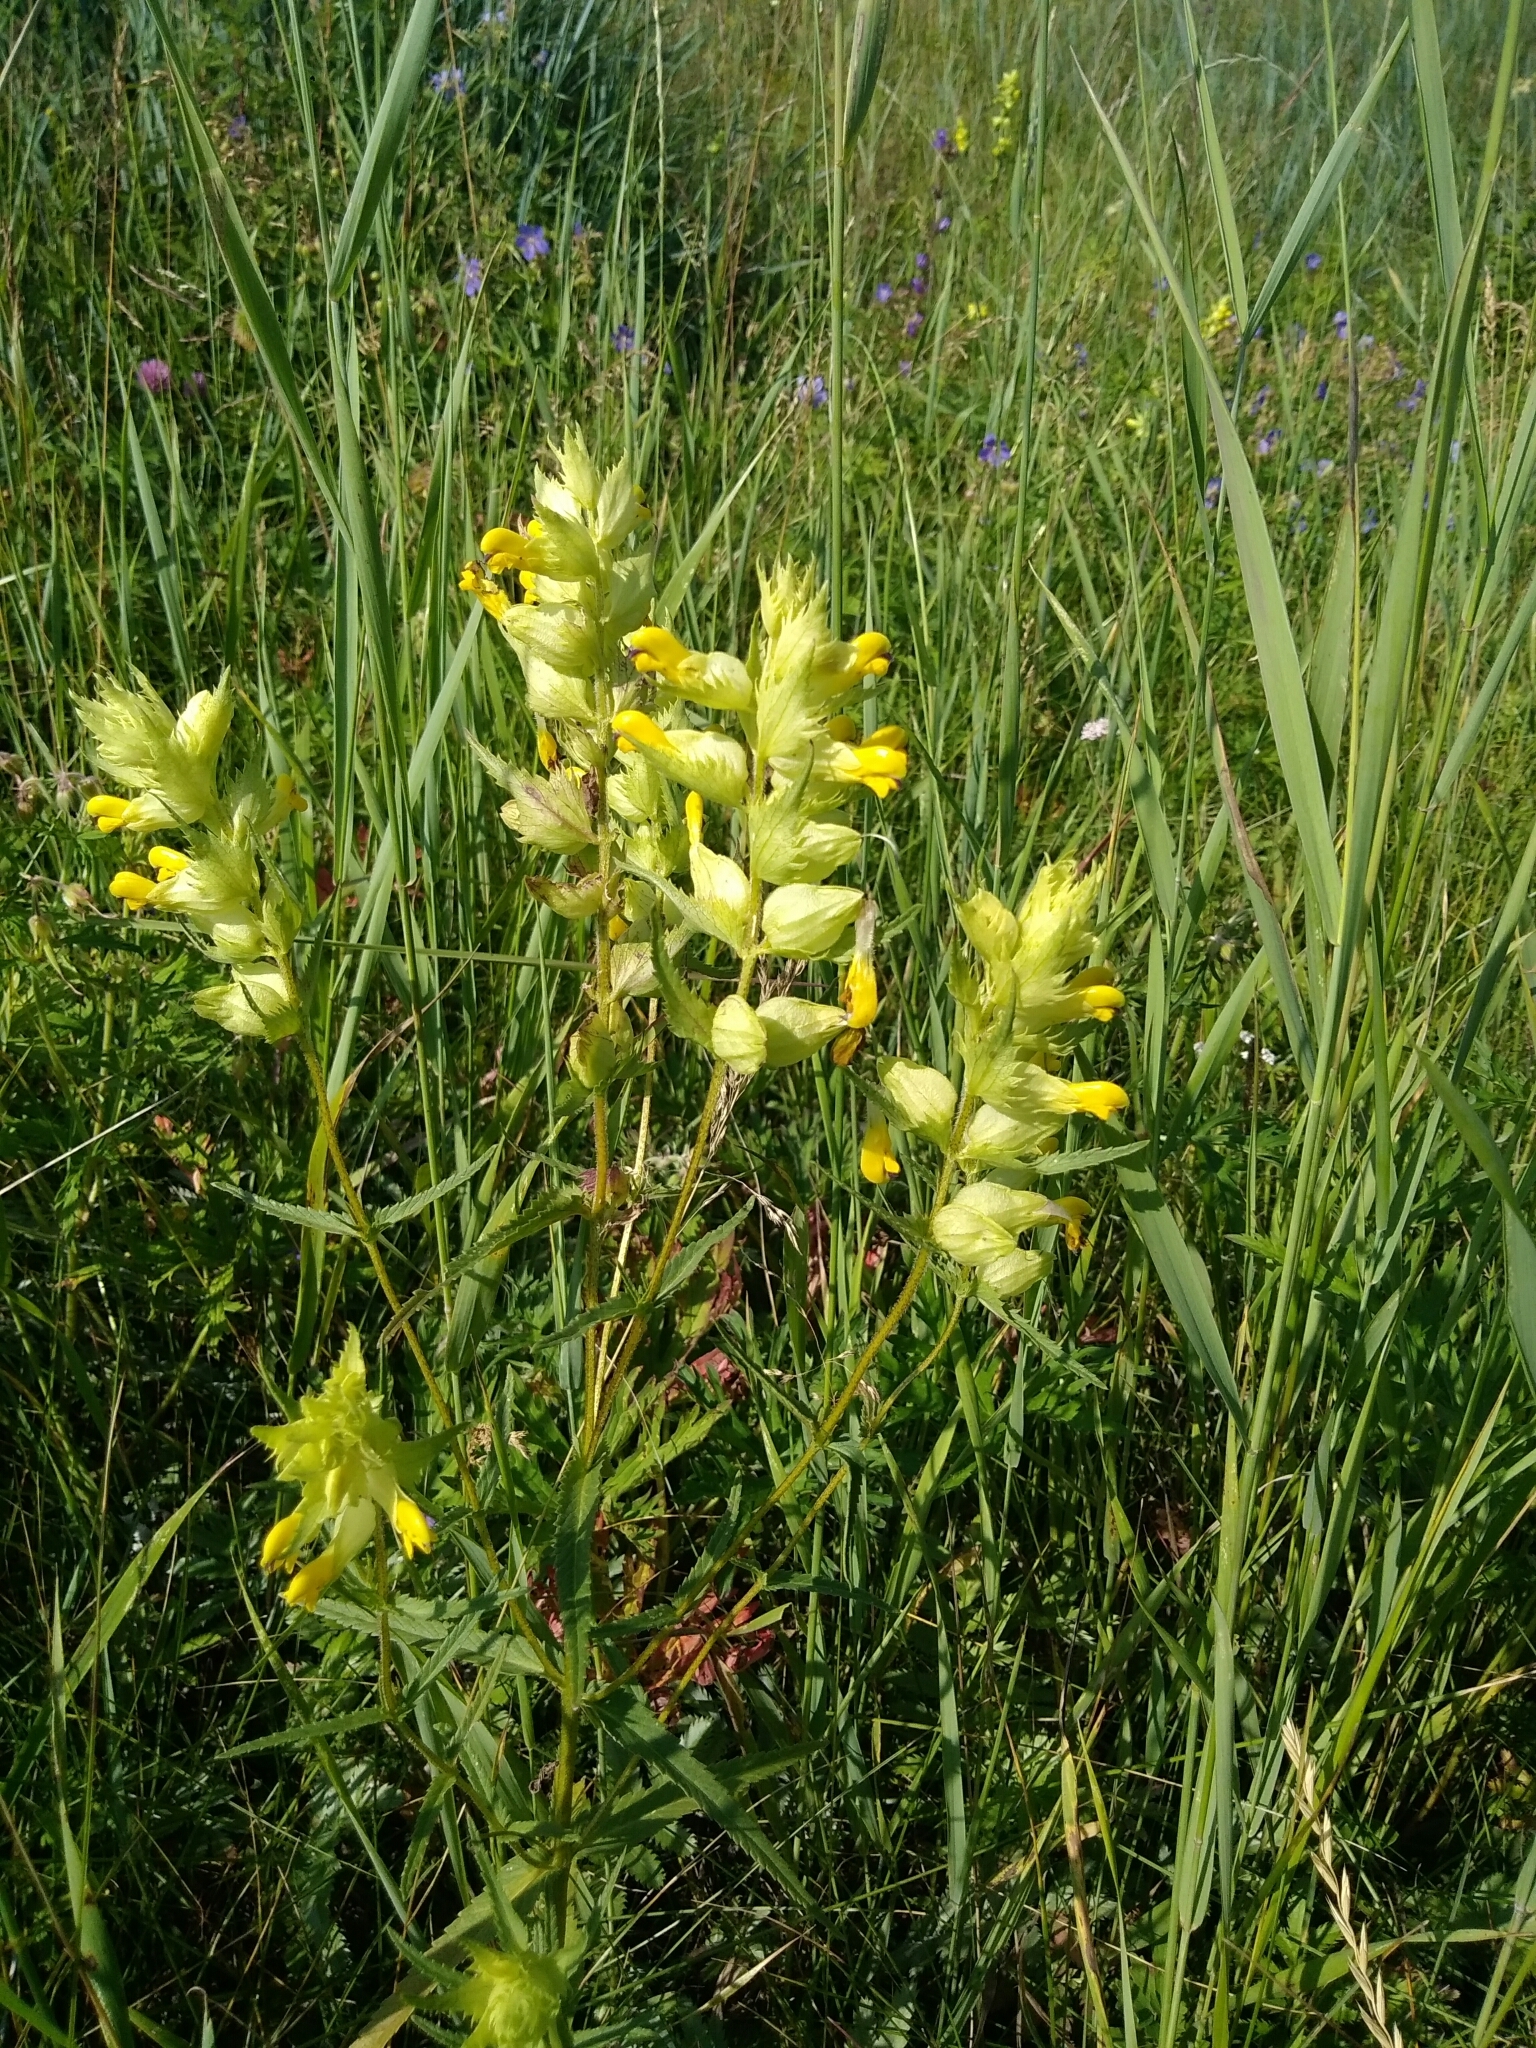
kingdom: Plantae
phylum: Tracheophyta
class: Magnoliopsida
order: Lamiales
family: Orobanchaceae
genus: Rhinanthus
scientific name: Rhinanthus serotinus
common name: Late-flowering yellow rattle
